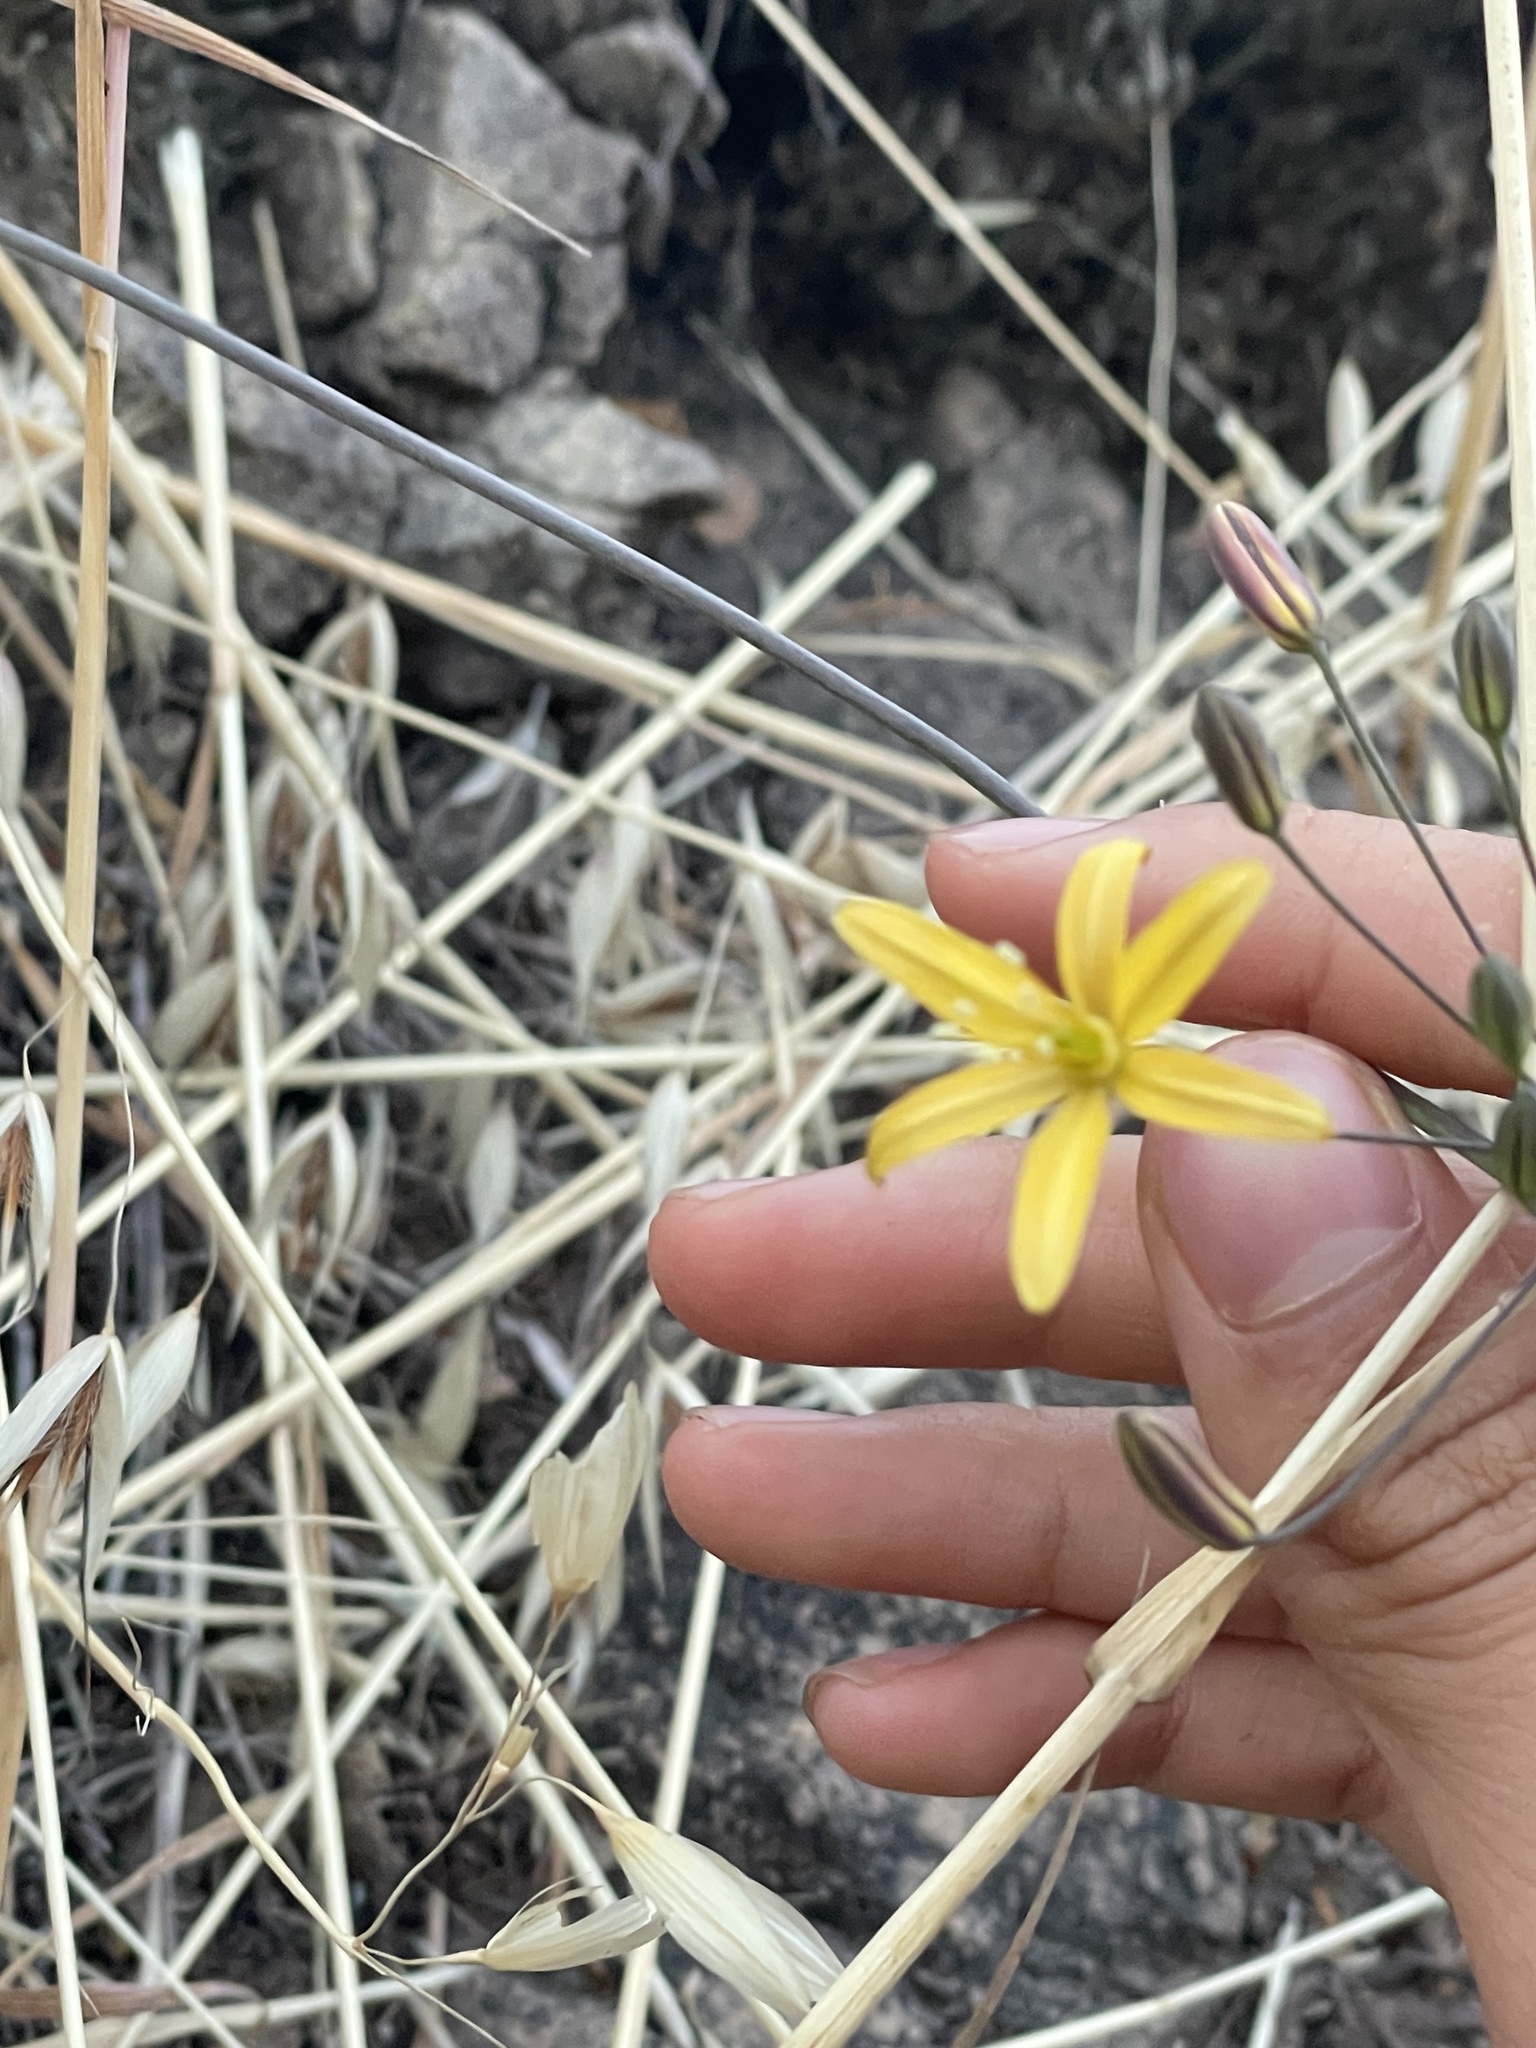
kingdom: Plantae
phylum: Tracheophyta
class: Liliopsida
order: Asparagales
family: Asparagaceae
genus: Bloomeria
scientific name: Bloomeria crocea
